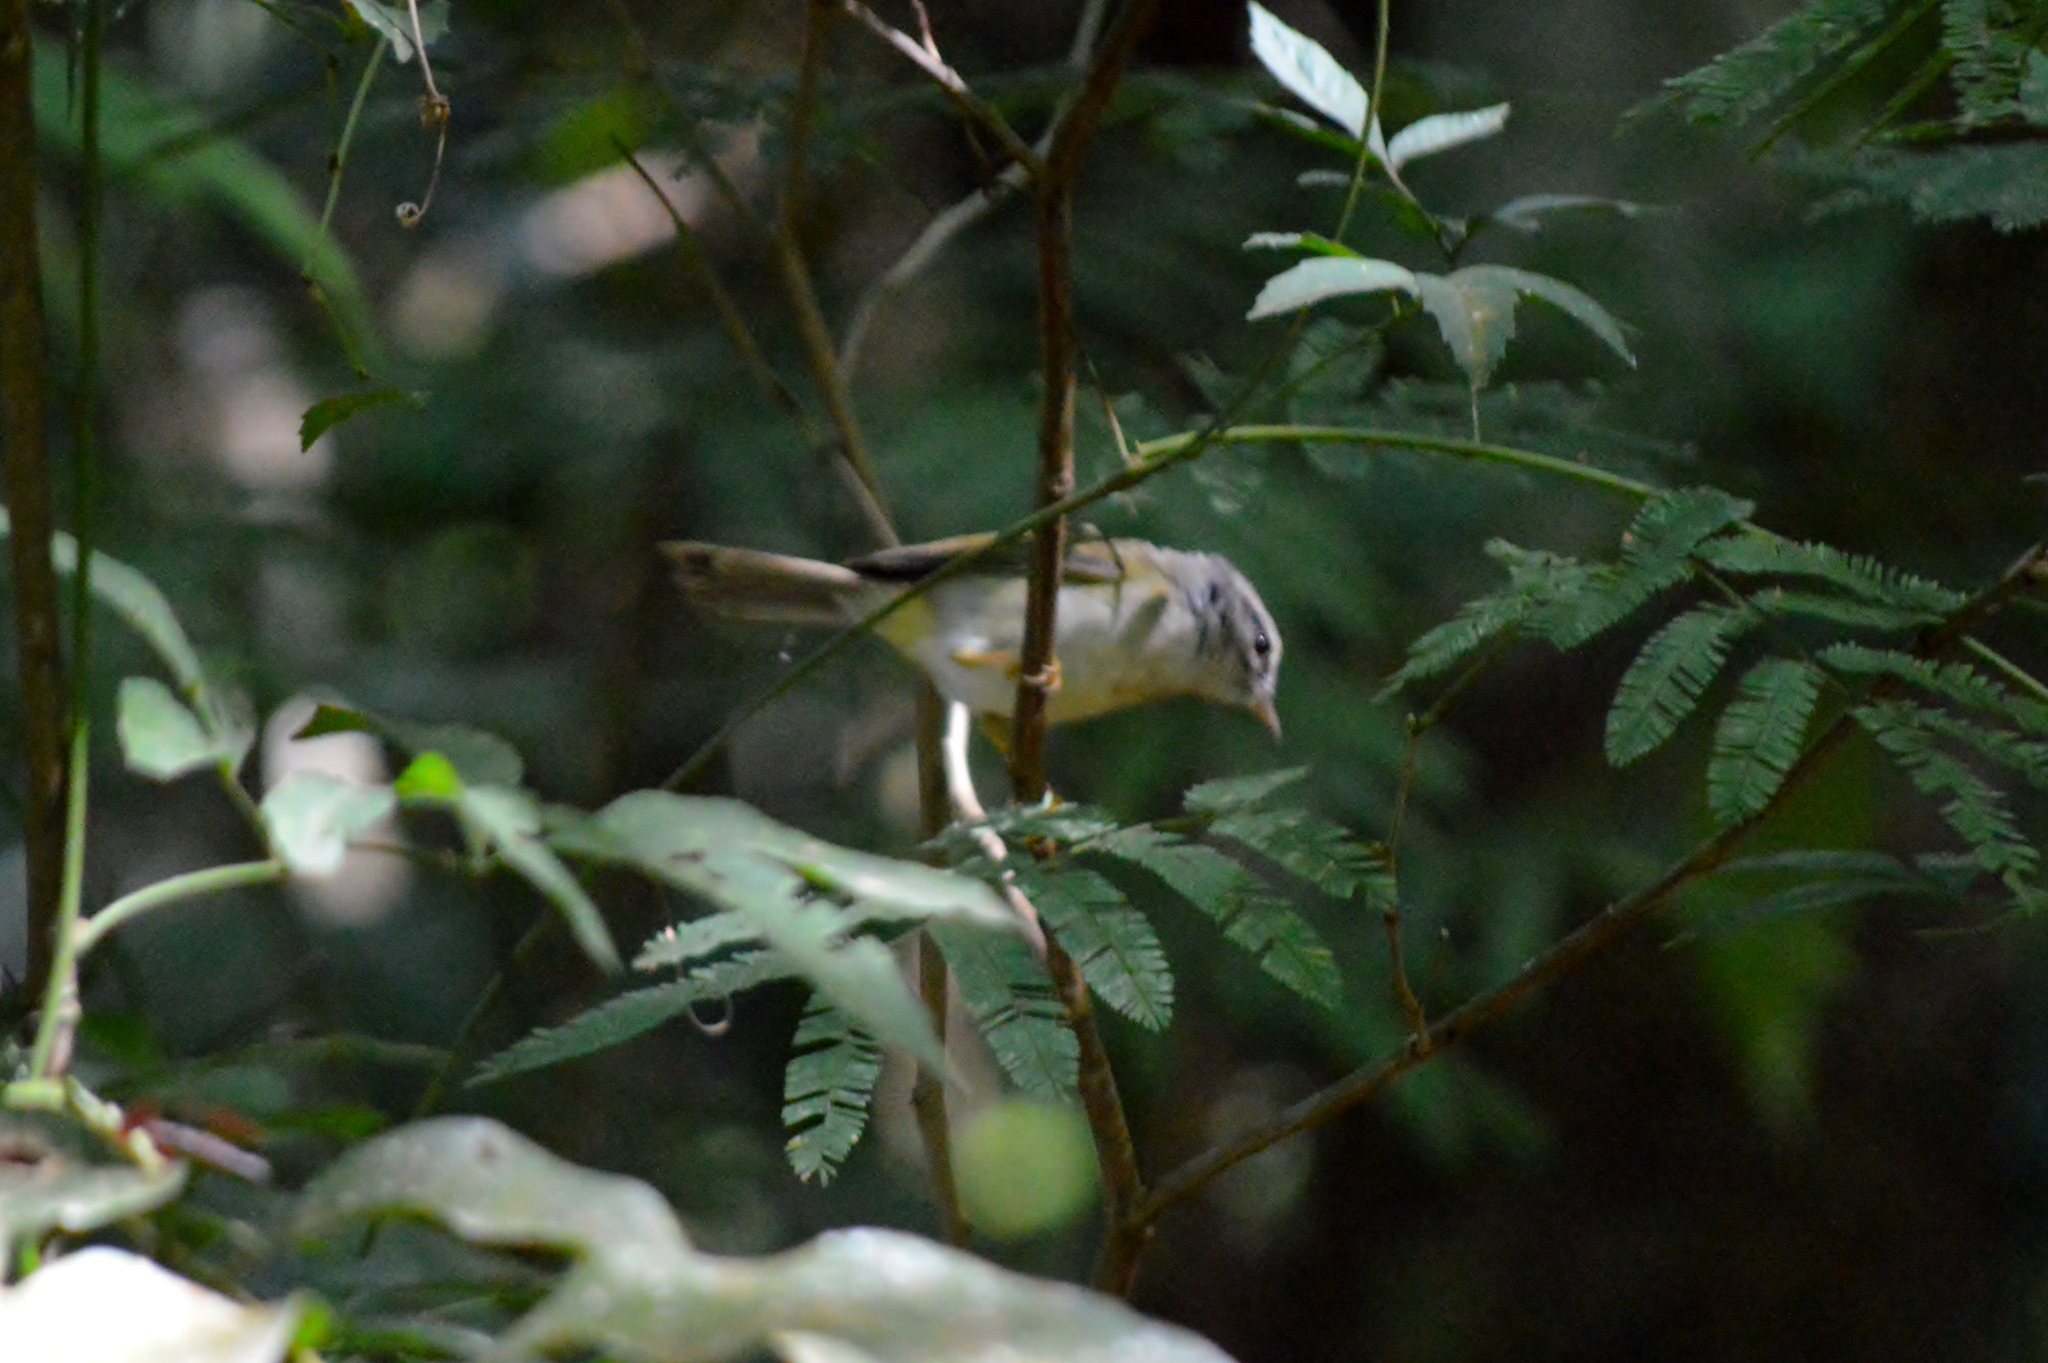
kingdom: Animalia
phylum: Chordata
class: Aves
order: Passeriformes
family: Parulidae
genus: Basileuterus
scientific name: Basileuterus culicivorus
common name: Golden-crowned warbler
